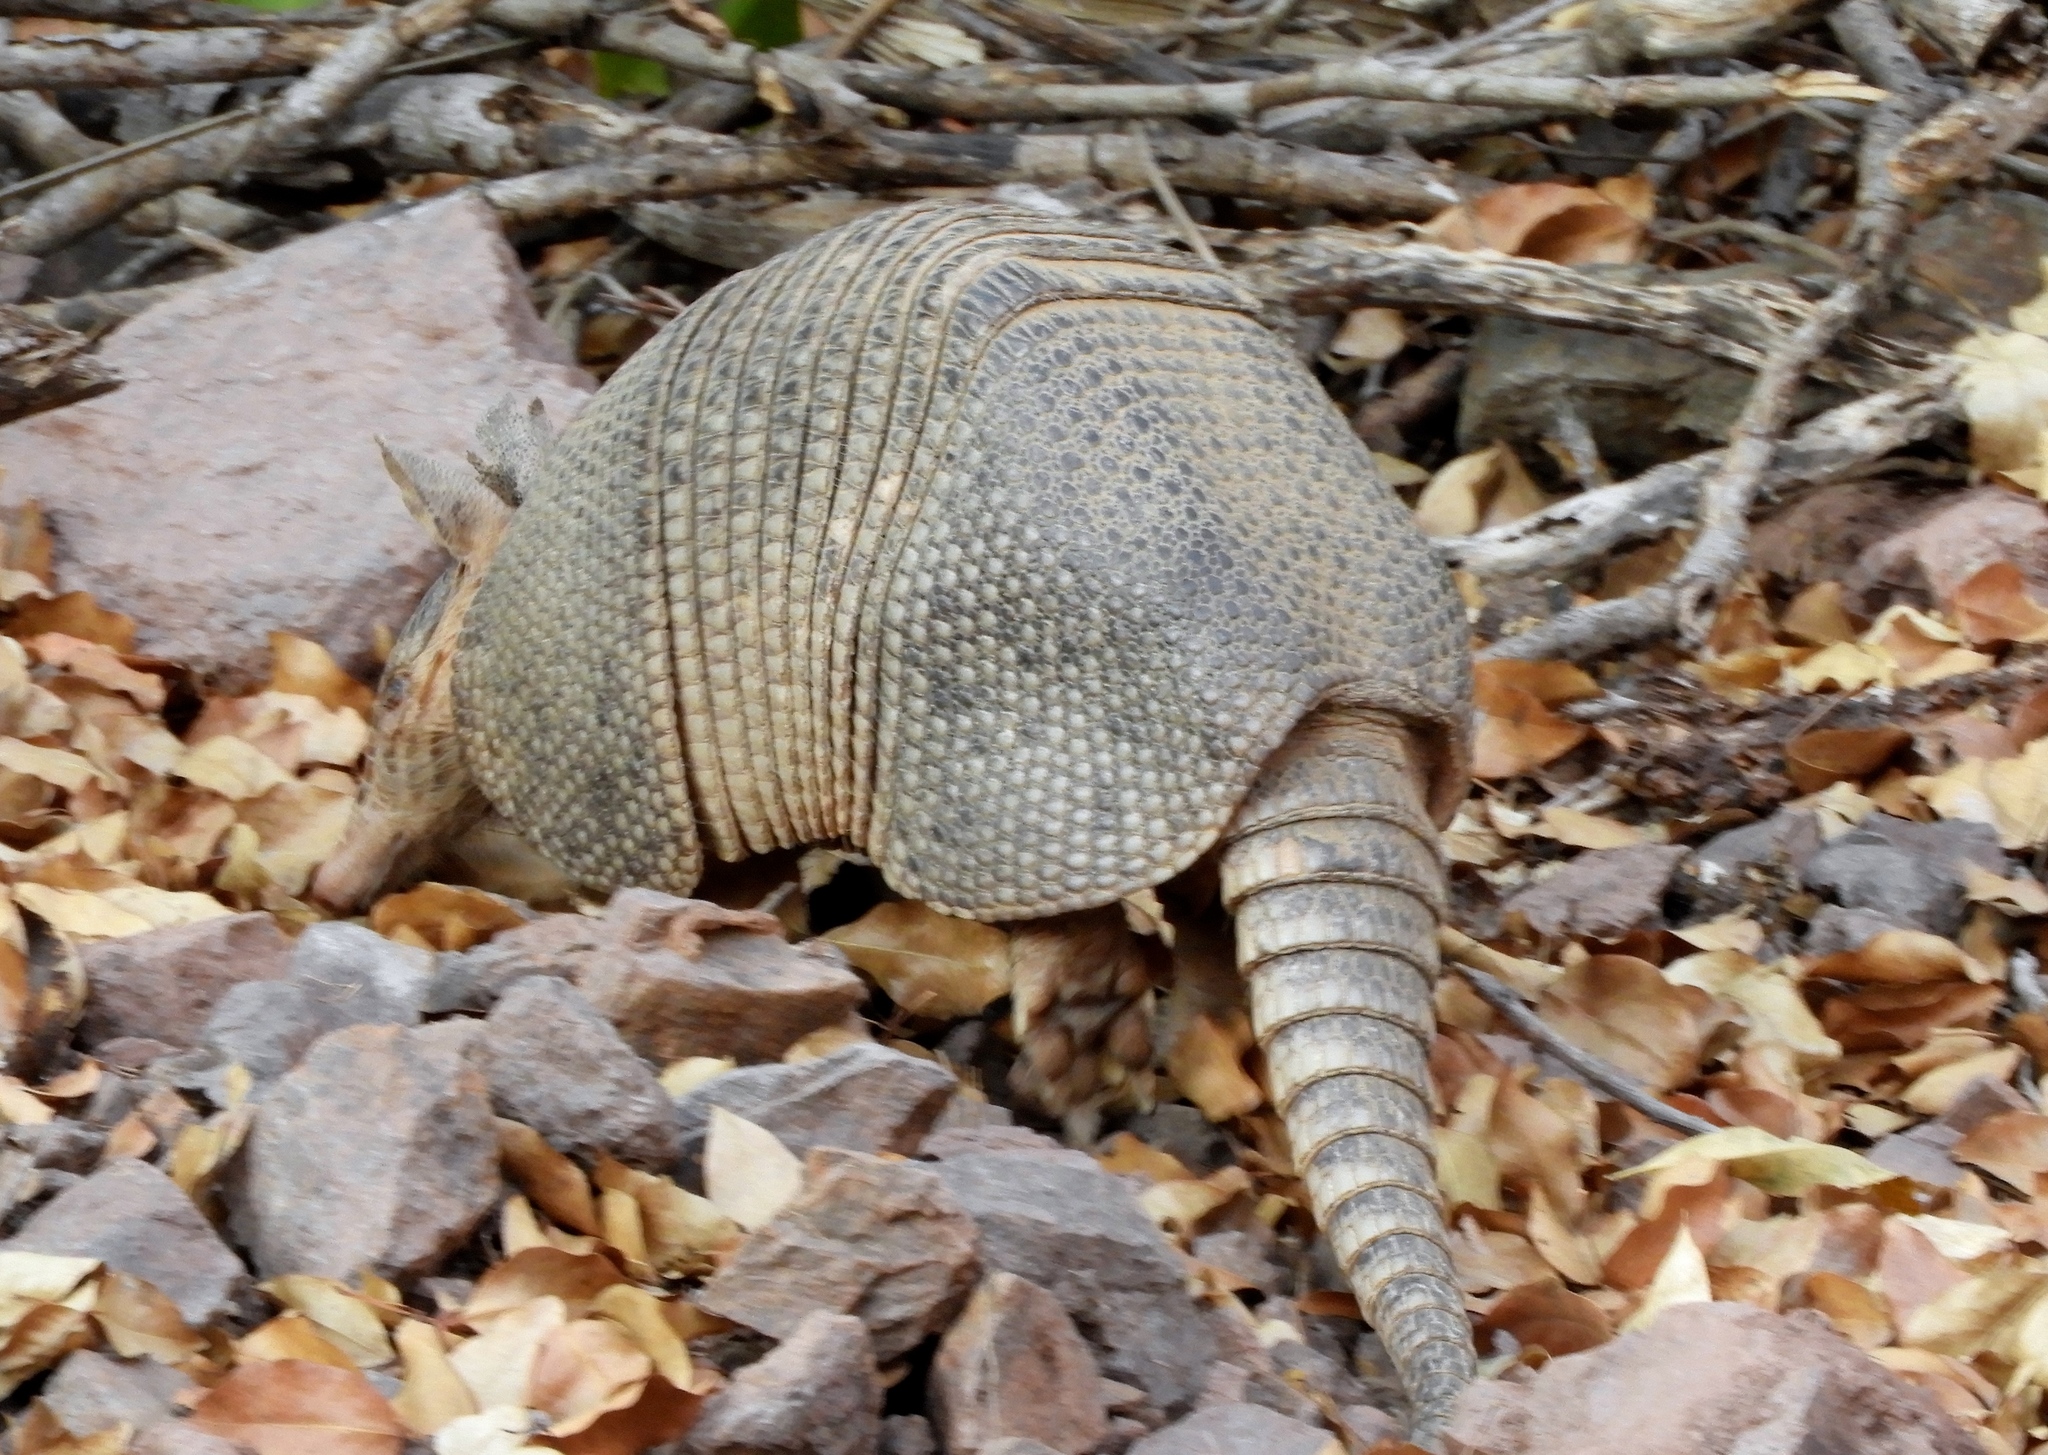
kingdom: Animalia
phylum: Chordata
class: Mammalia
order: Cingulata
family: Dasypodidae
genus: Dasypus
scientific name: Dasypus novemcinctus
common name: Nine-banded armadillo
